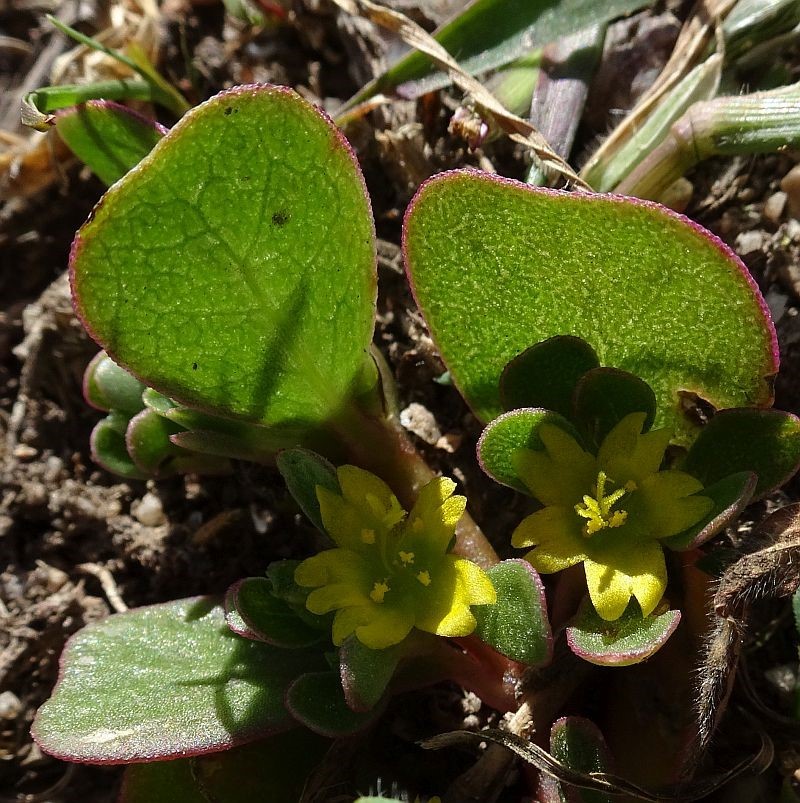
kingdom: Plantae
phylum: Tracheophyta
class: Magnoliopsida
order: Caryophyllales
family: Portulacaceae
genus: Portulaca
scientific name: Portulaca oleracea
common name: Common purslane
